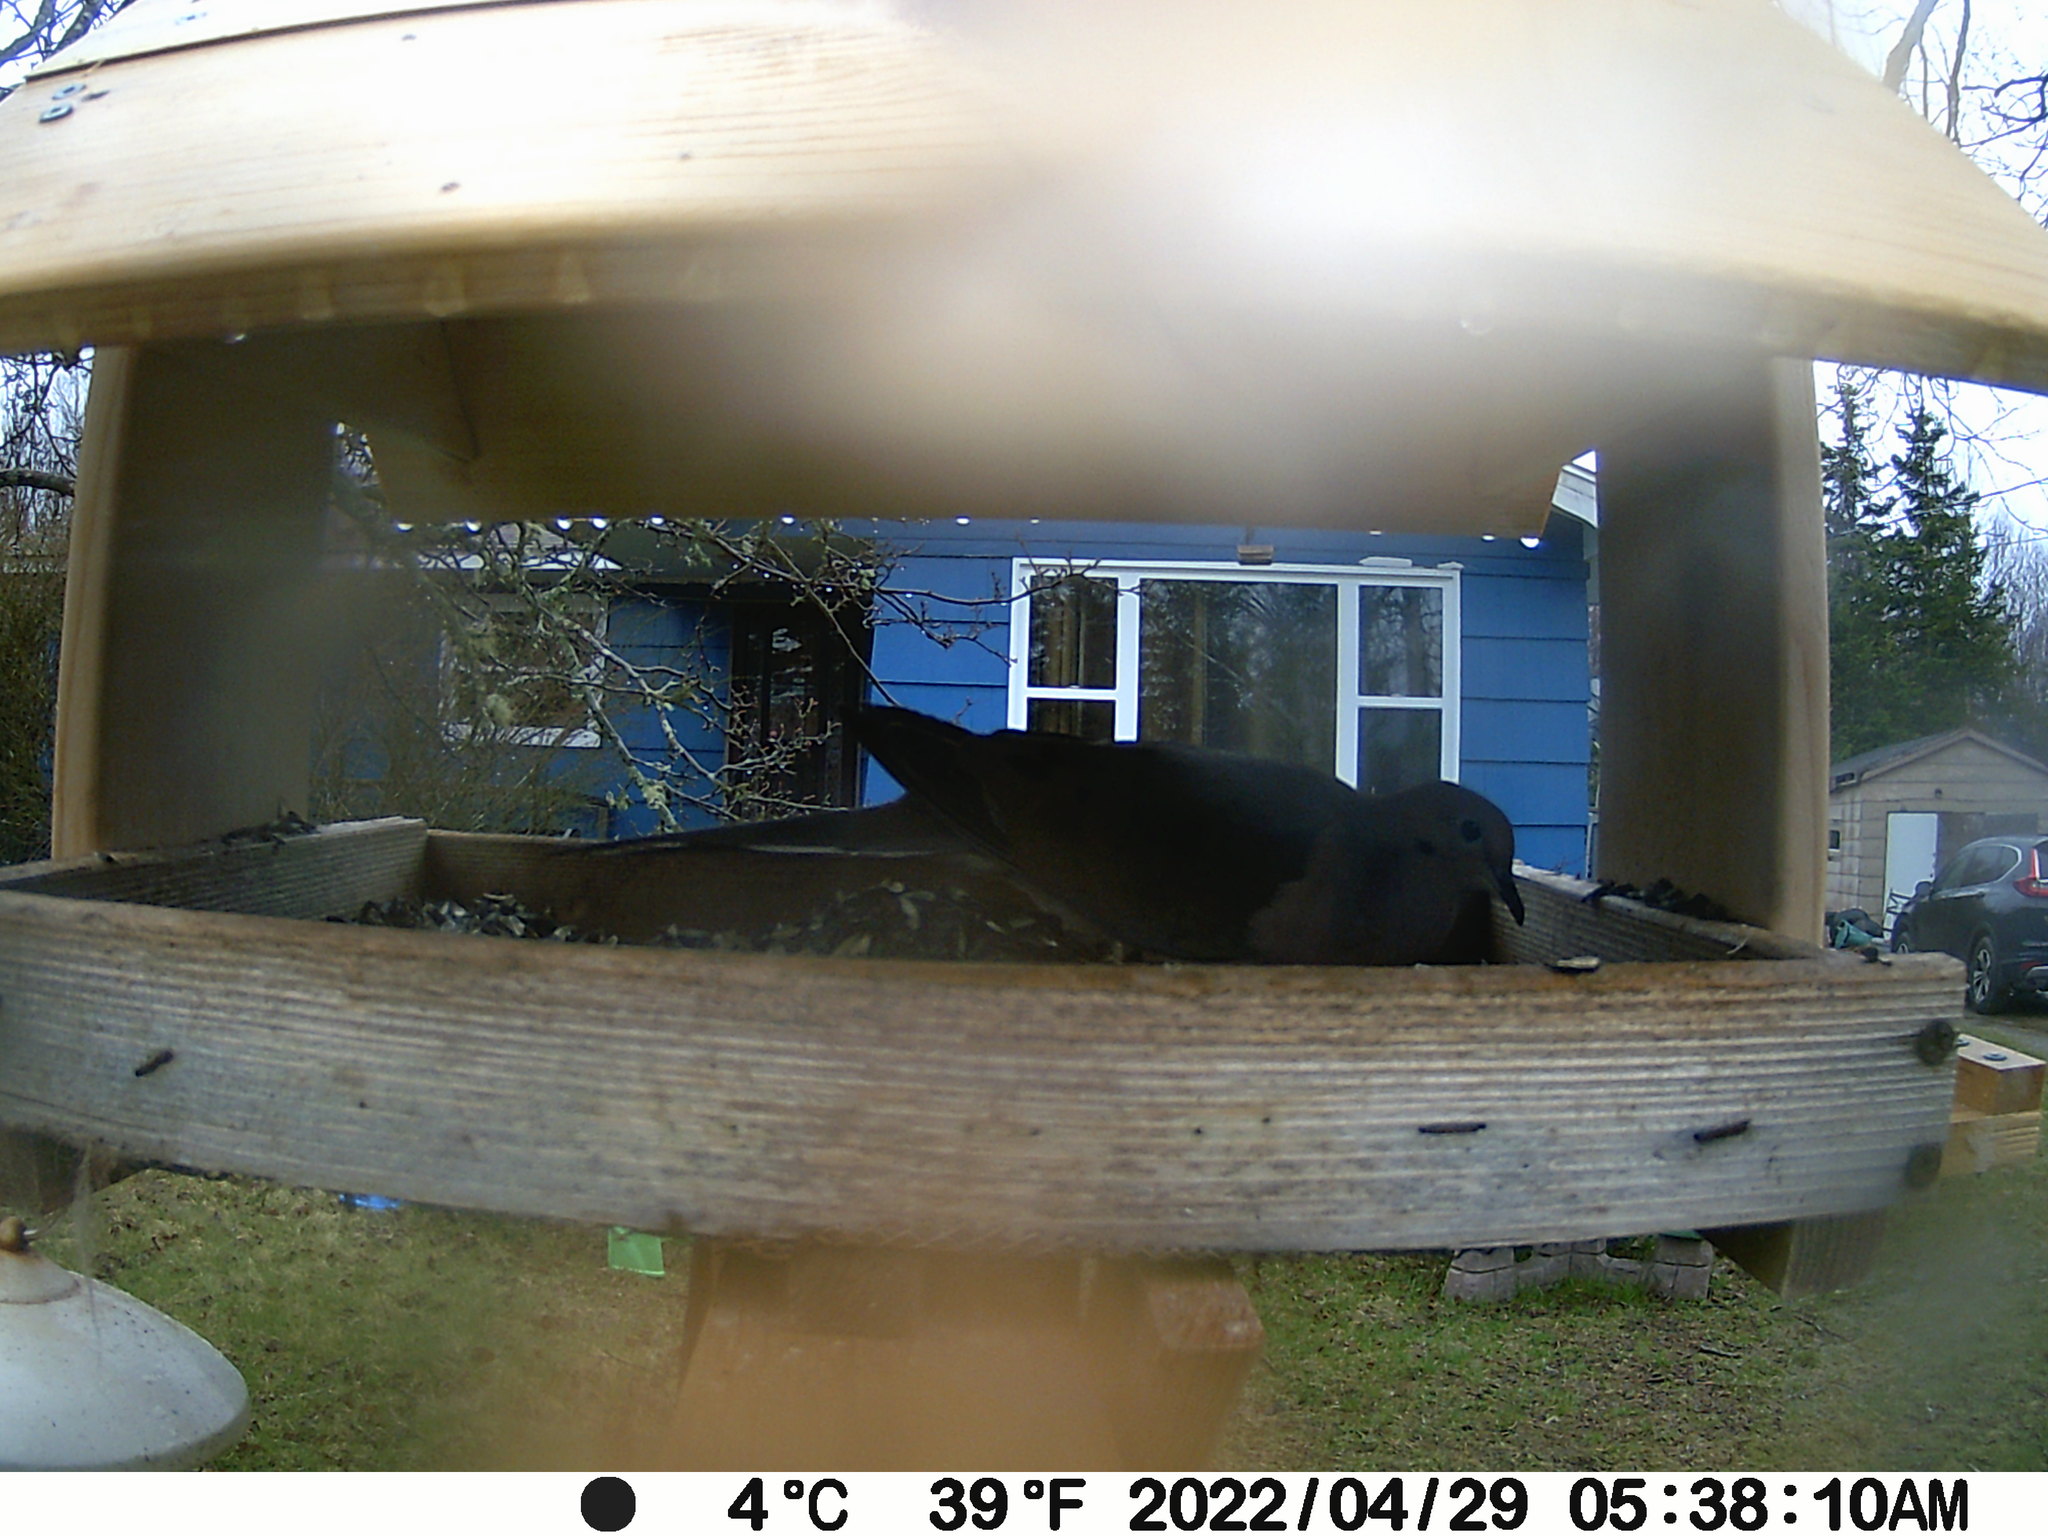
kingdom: Animalia
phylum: Chordata
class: Aves
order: Columbiformes
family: Columbidae
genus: Zenaida
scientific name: Zenaida macroura
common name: Mourning dove
